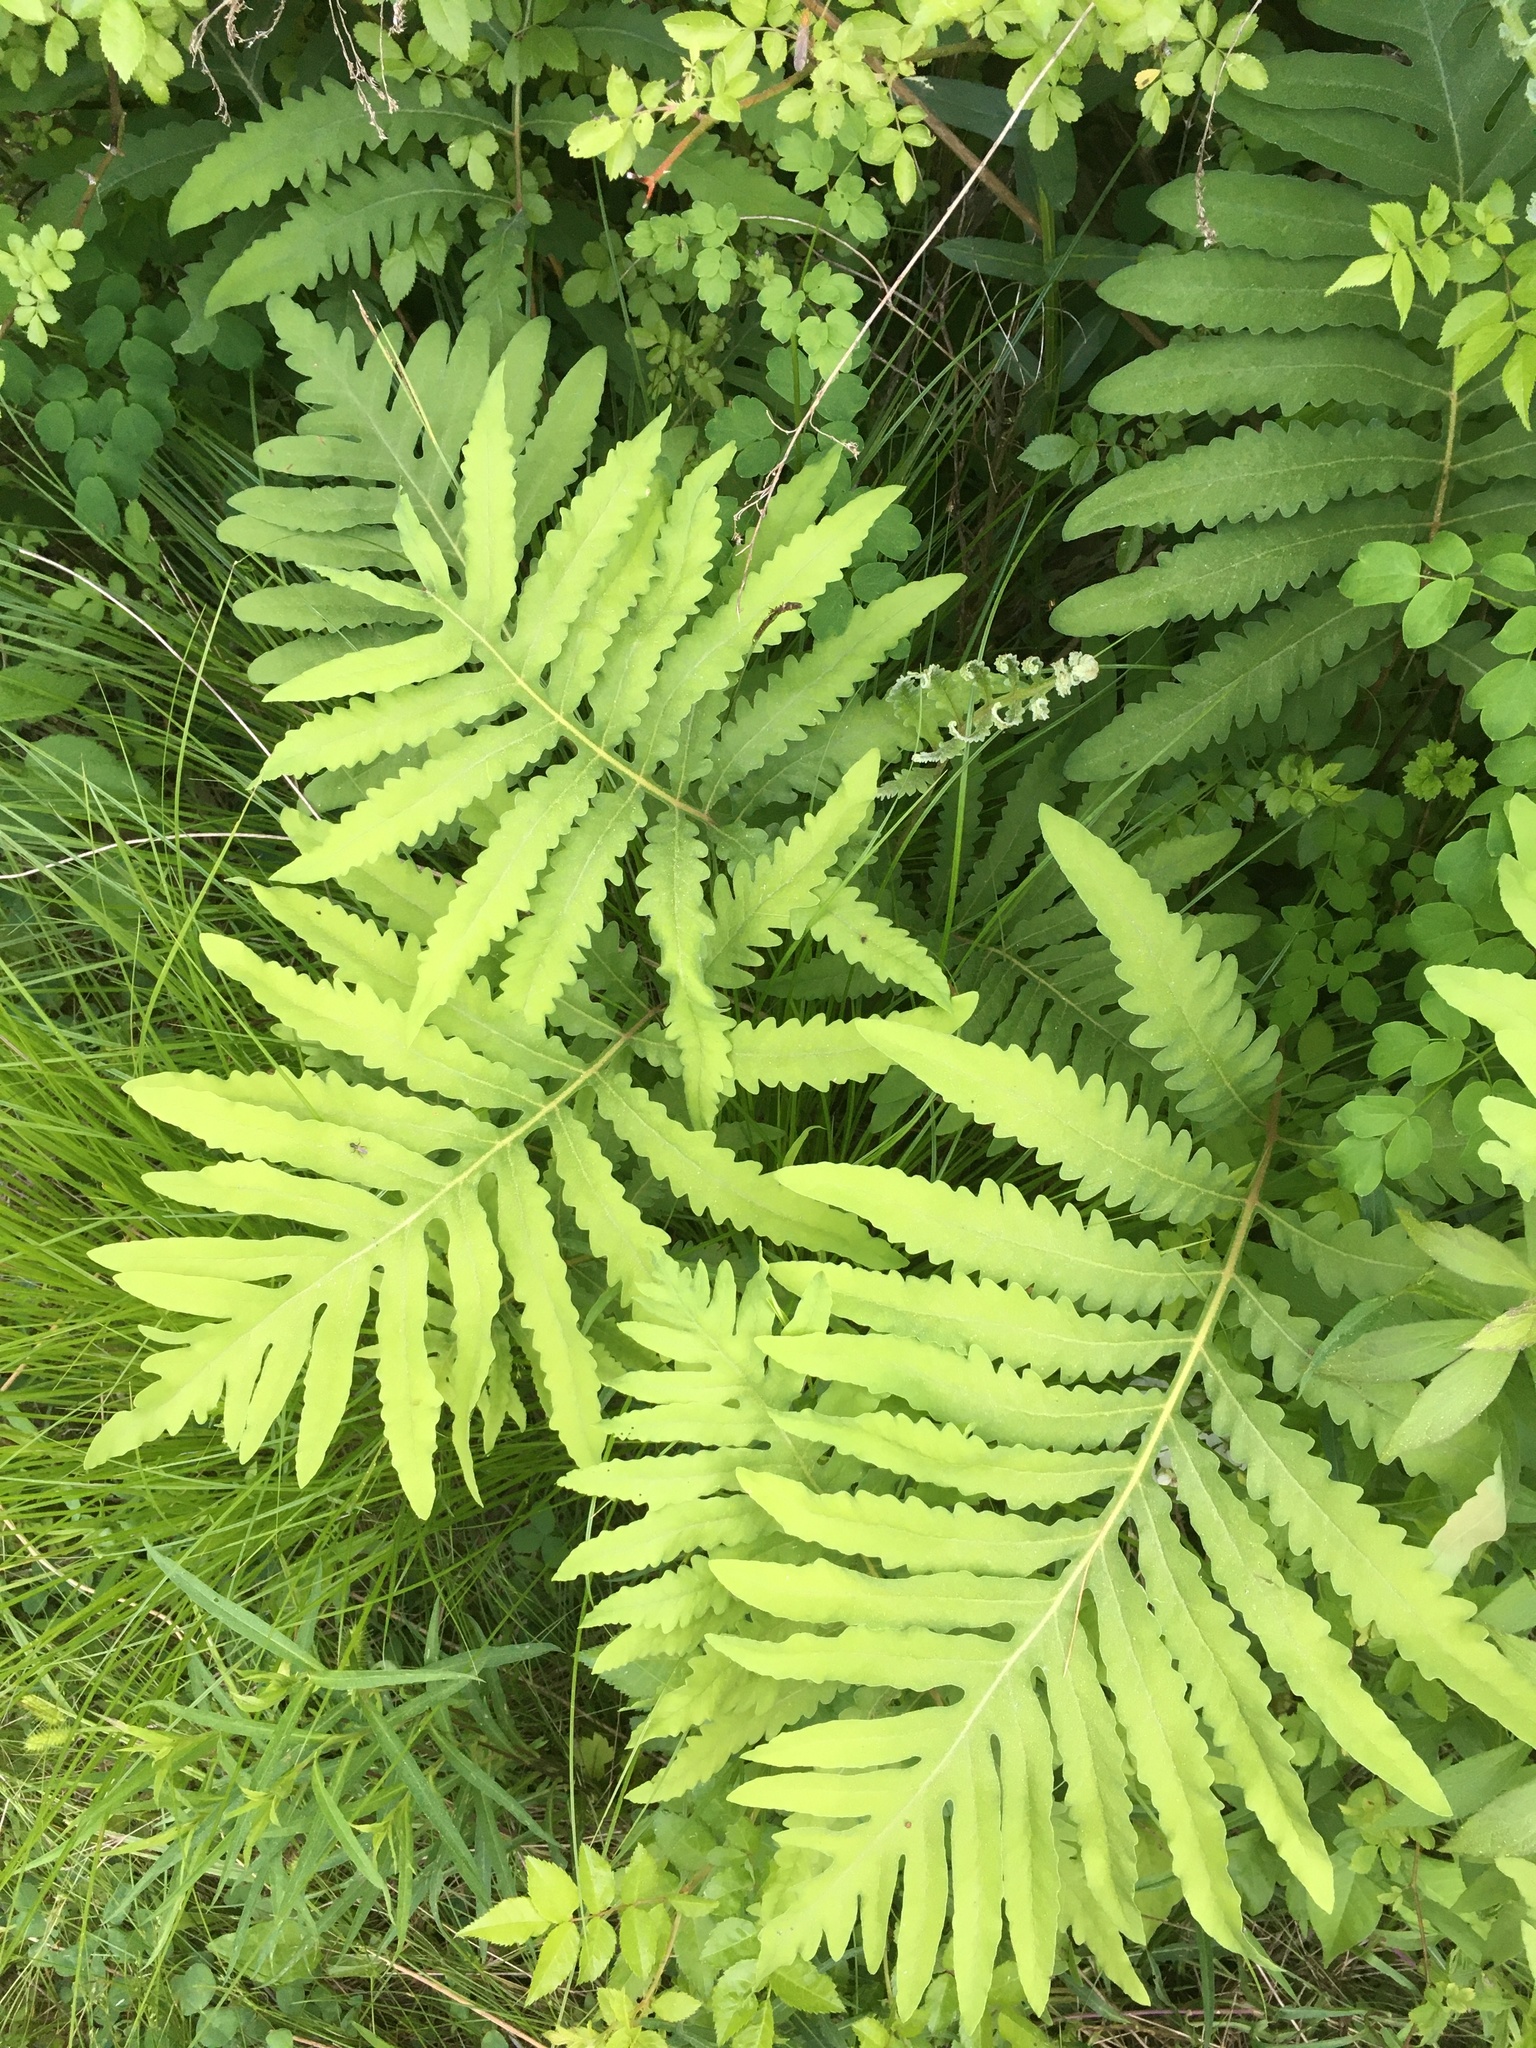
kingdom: Plantae
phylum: Tracheophyta
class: Polypodiopsida
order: Polypodiales
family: Onocleaceae
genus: Onoclea
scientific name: Onoclea sensibilis
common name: Sensitive fern
